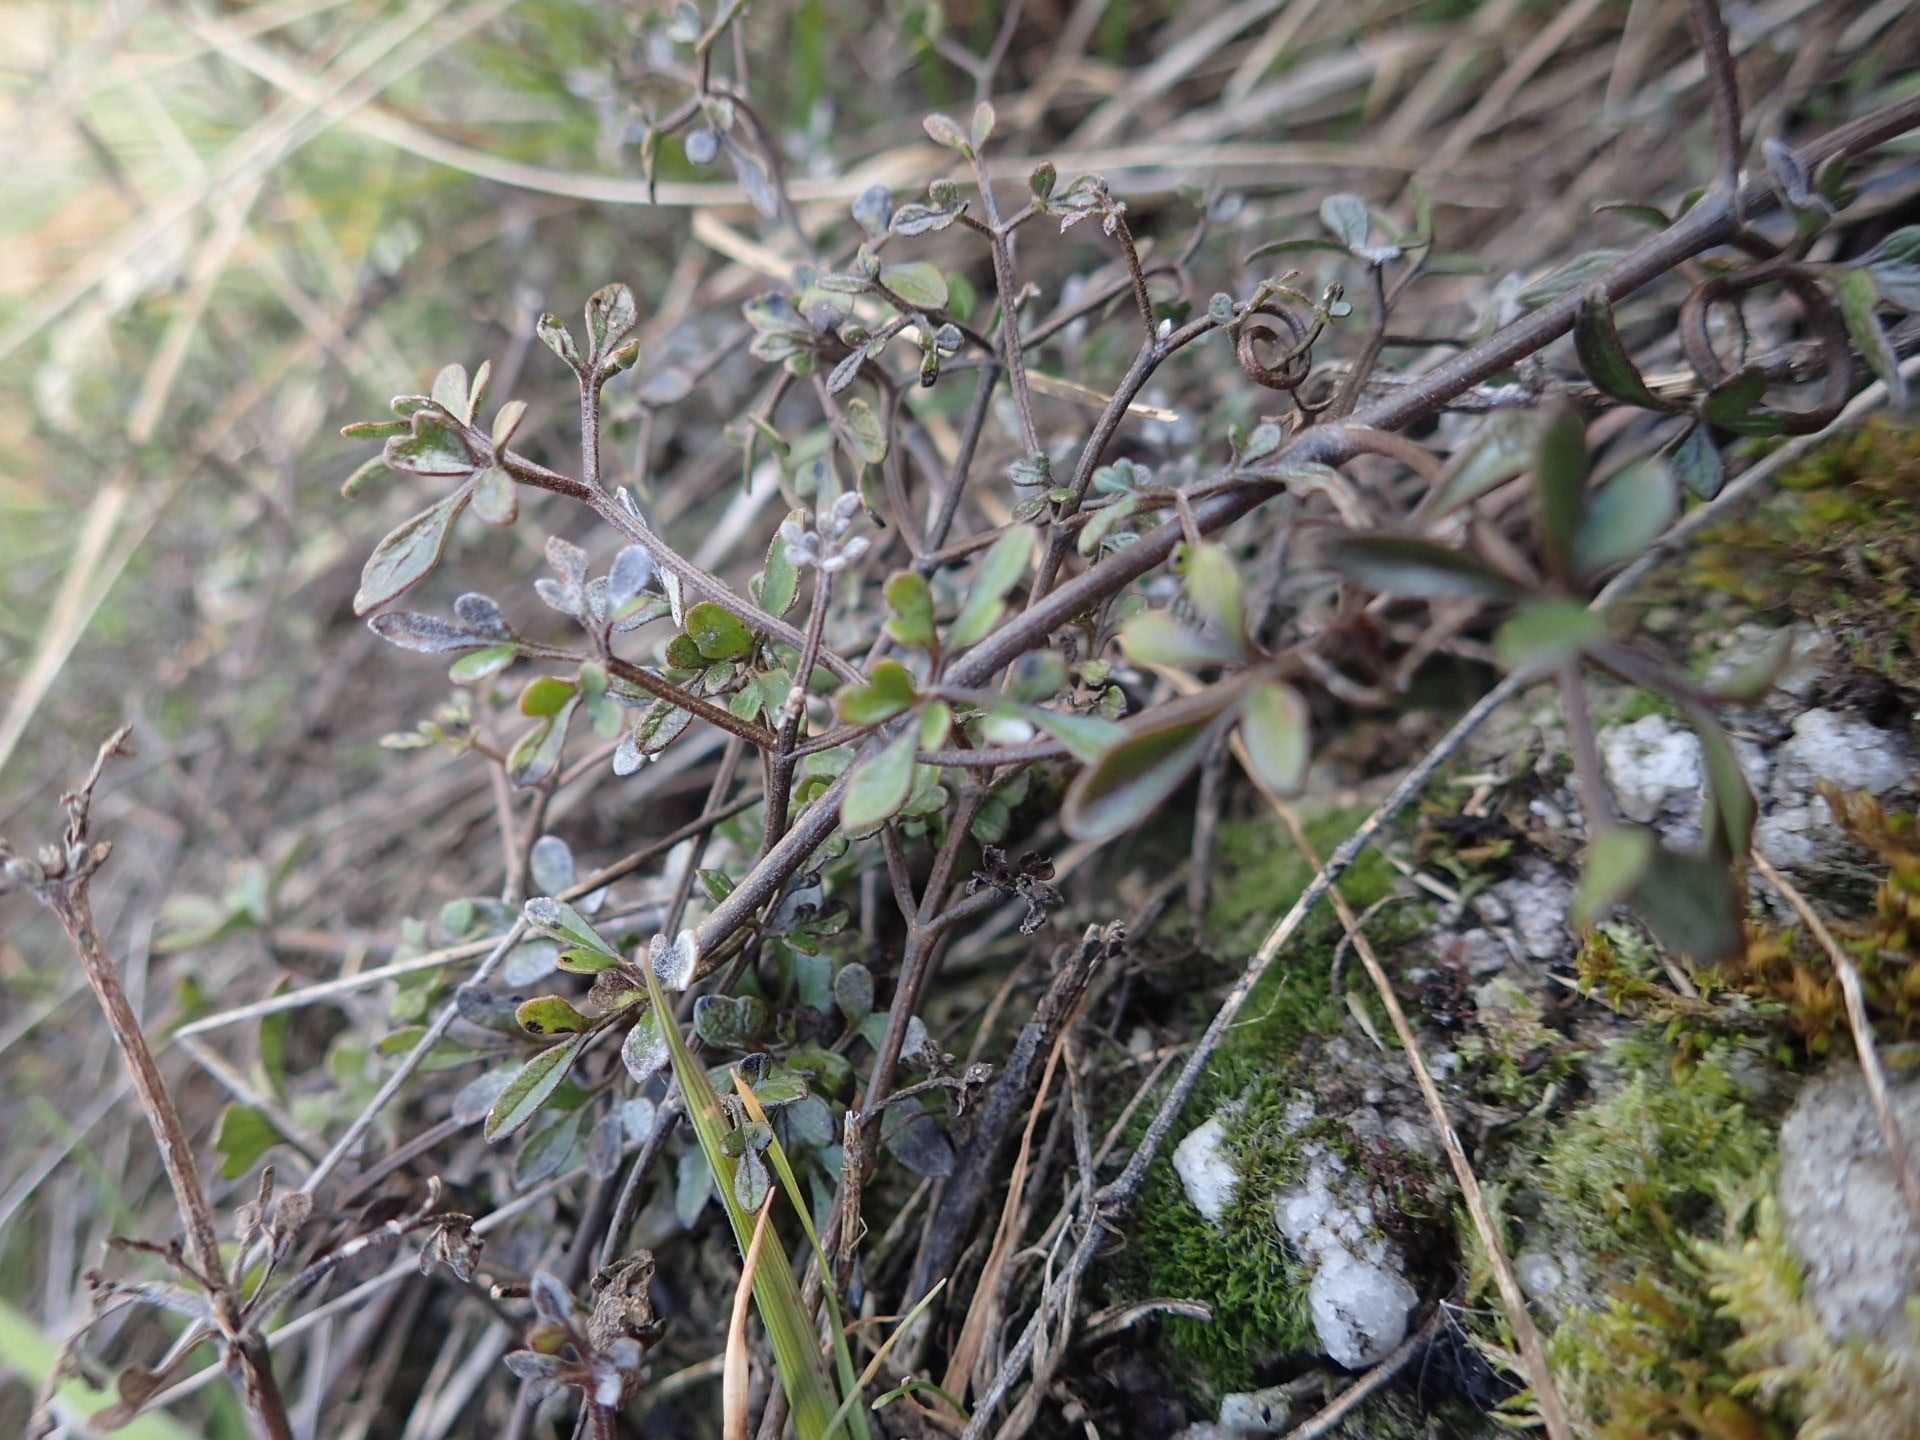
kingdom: Plantae
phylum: Tracheophyta
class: Magnoliopsida
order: Ranunculales
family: Ranunculaceae
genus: Clematis
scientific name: Clematis marata
